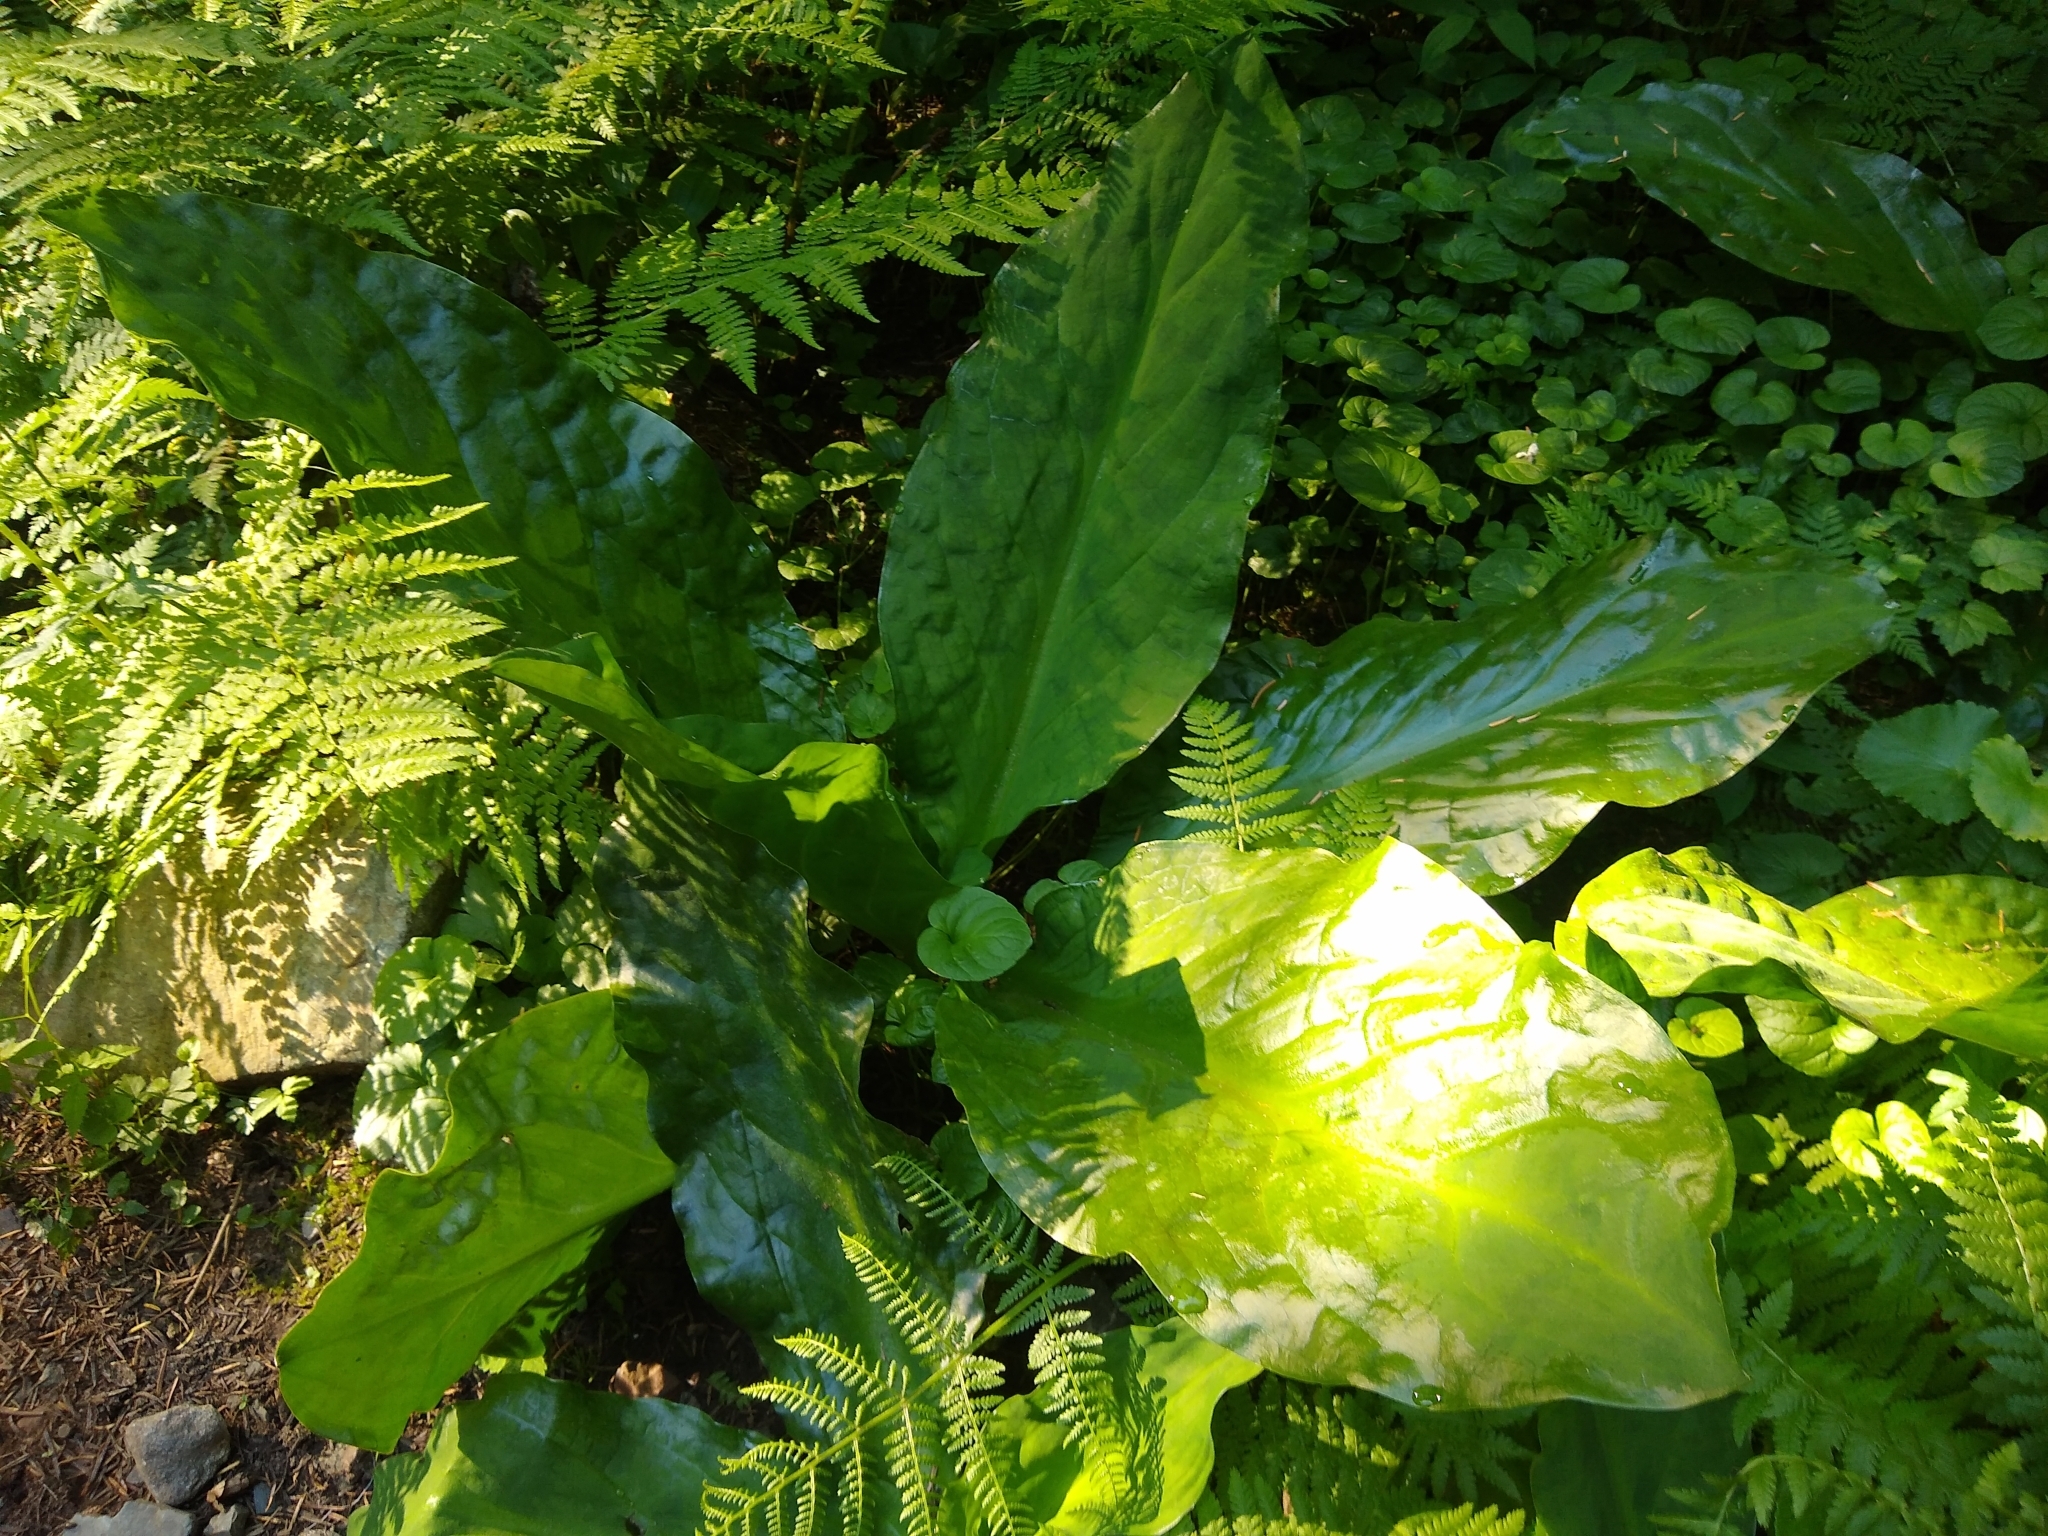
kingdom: Plantae
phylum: Tracheophyta
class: Liliopsida
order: Alismatales
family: Araceae
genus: Lysichiton
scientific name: Lysichiton americanus
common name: American skunk cabbage
